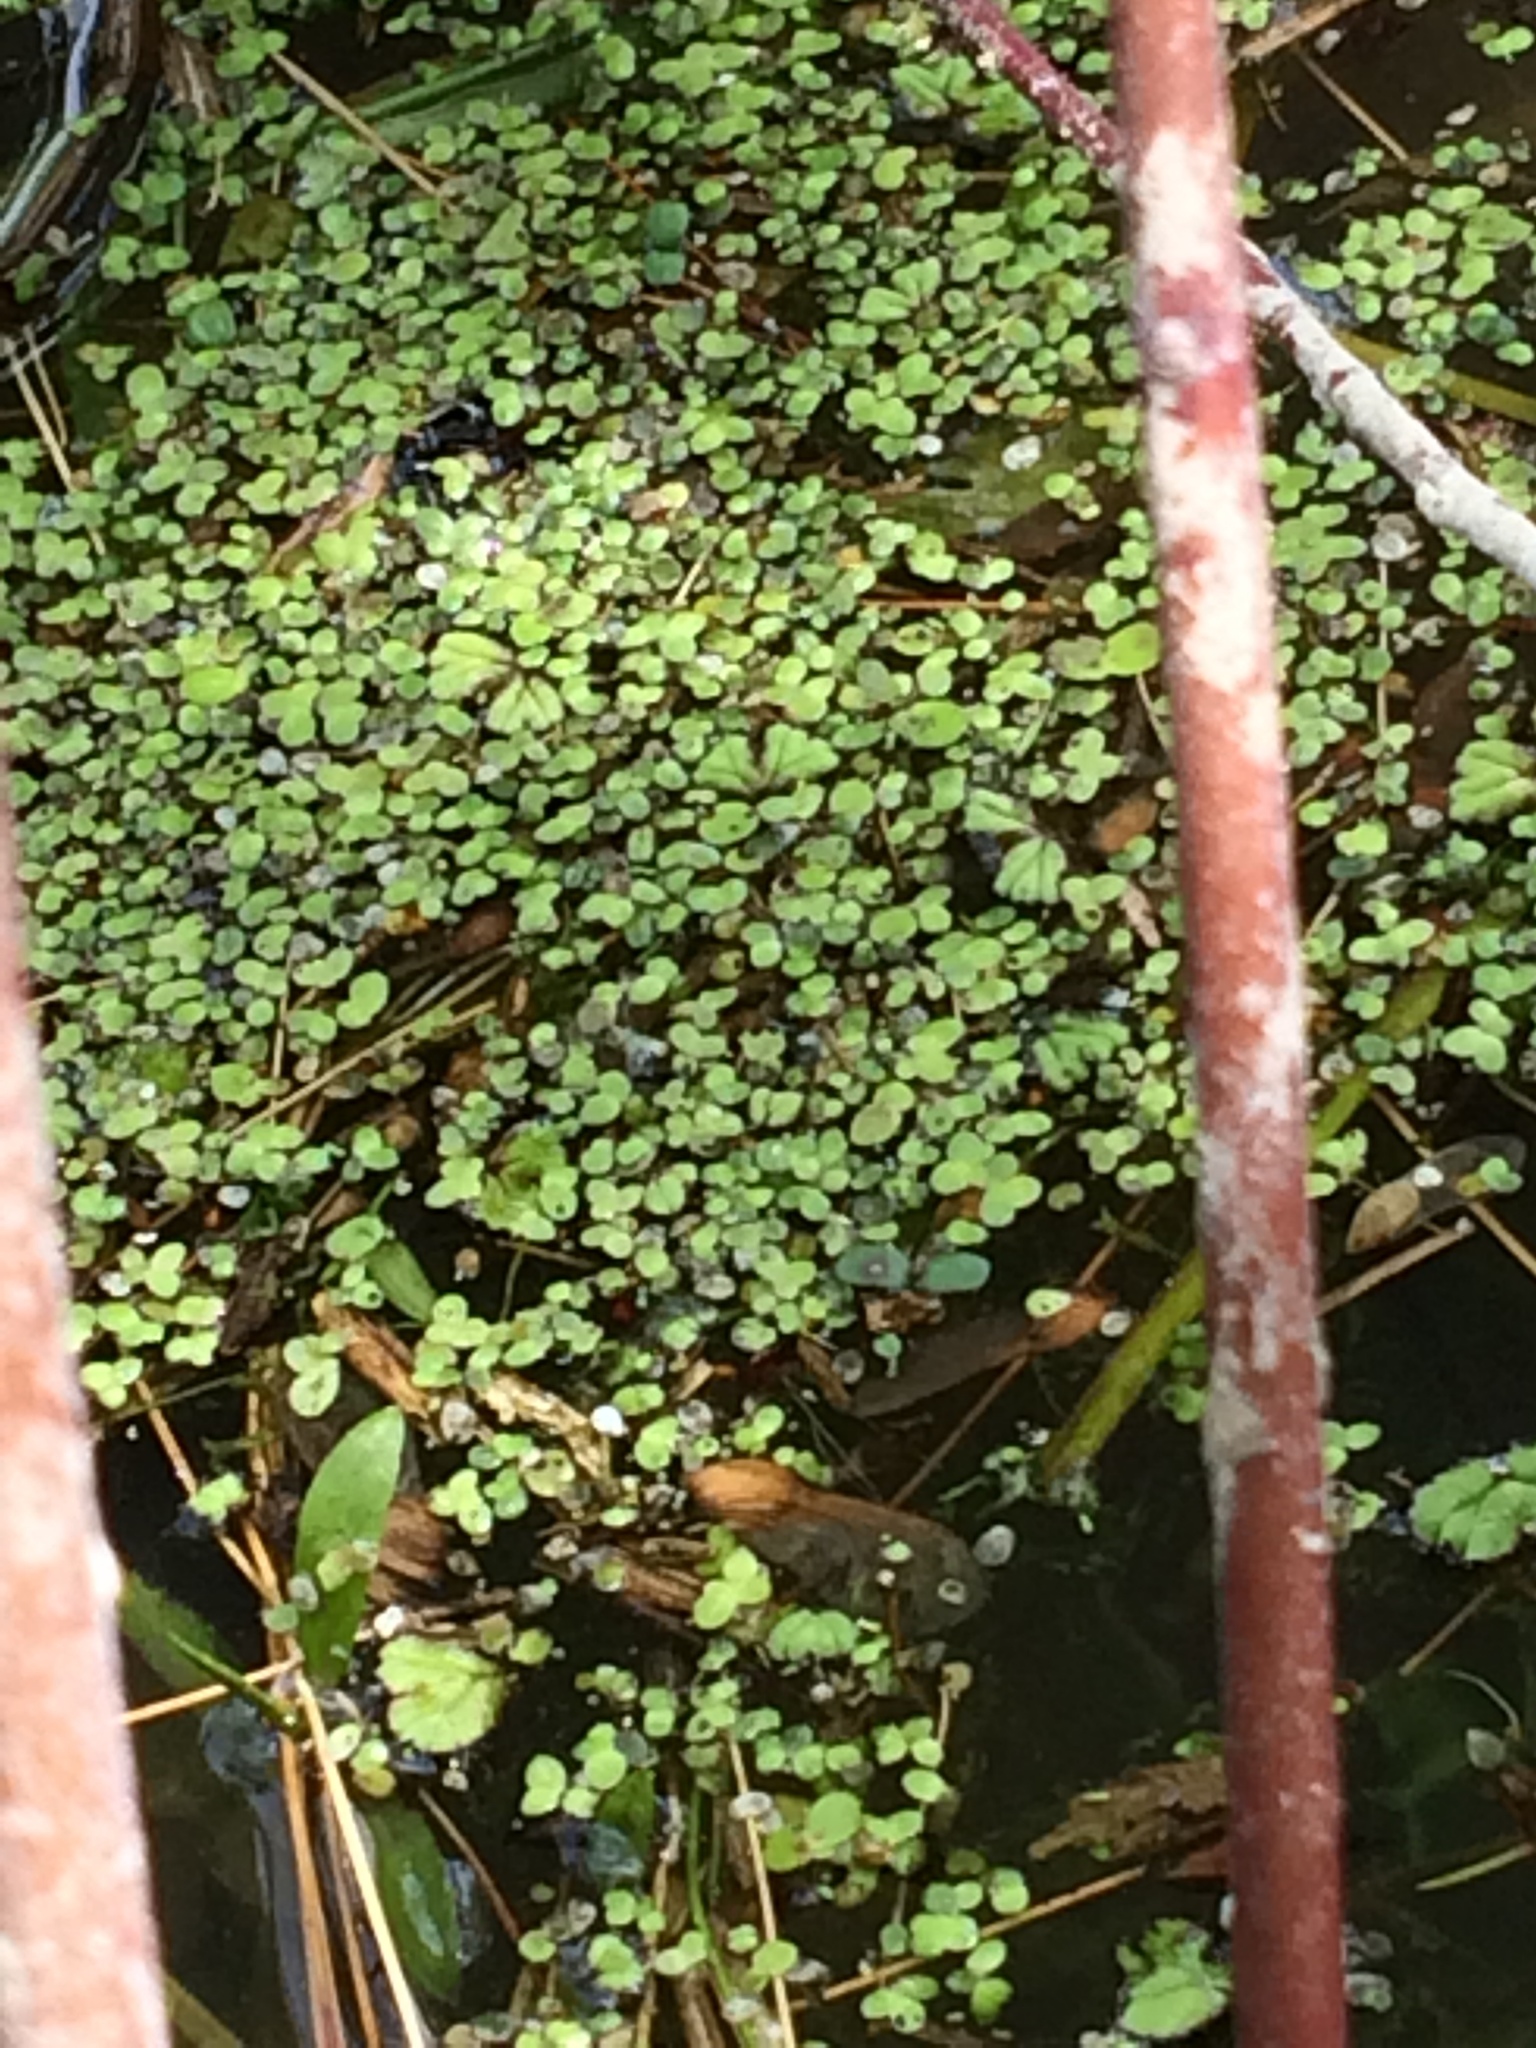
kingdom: Plantae
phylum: Tracheophyta
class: Liliopsida
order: Alismatales
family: Araceae
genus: Lemna
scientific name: Lemna minor
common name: Common duckweed
